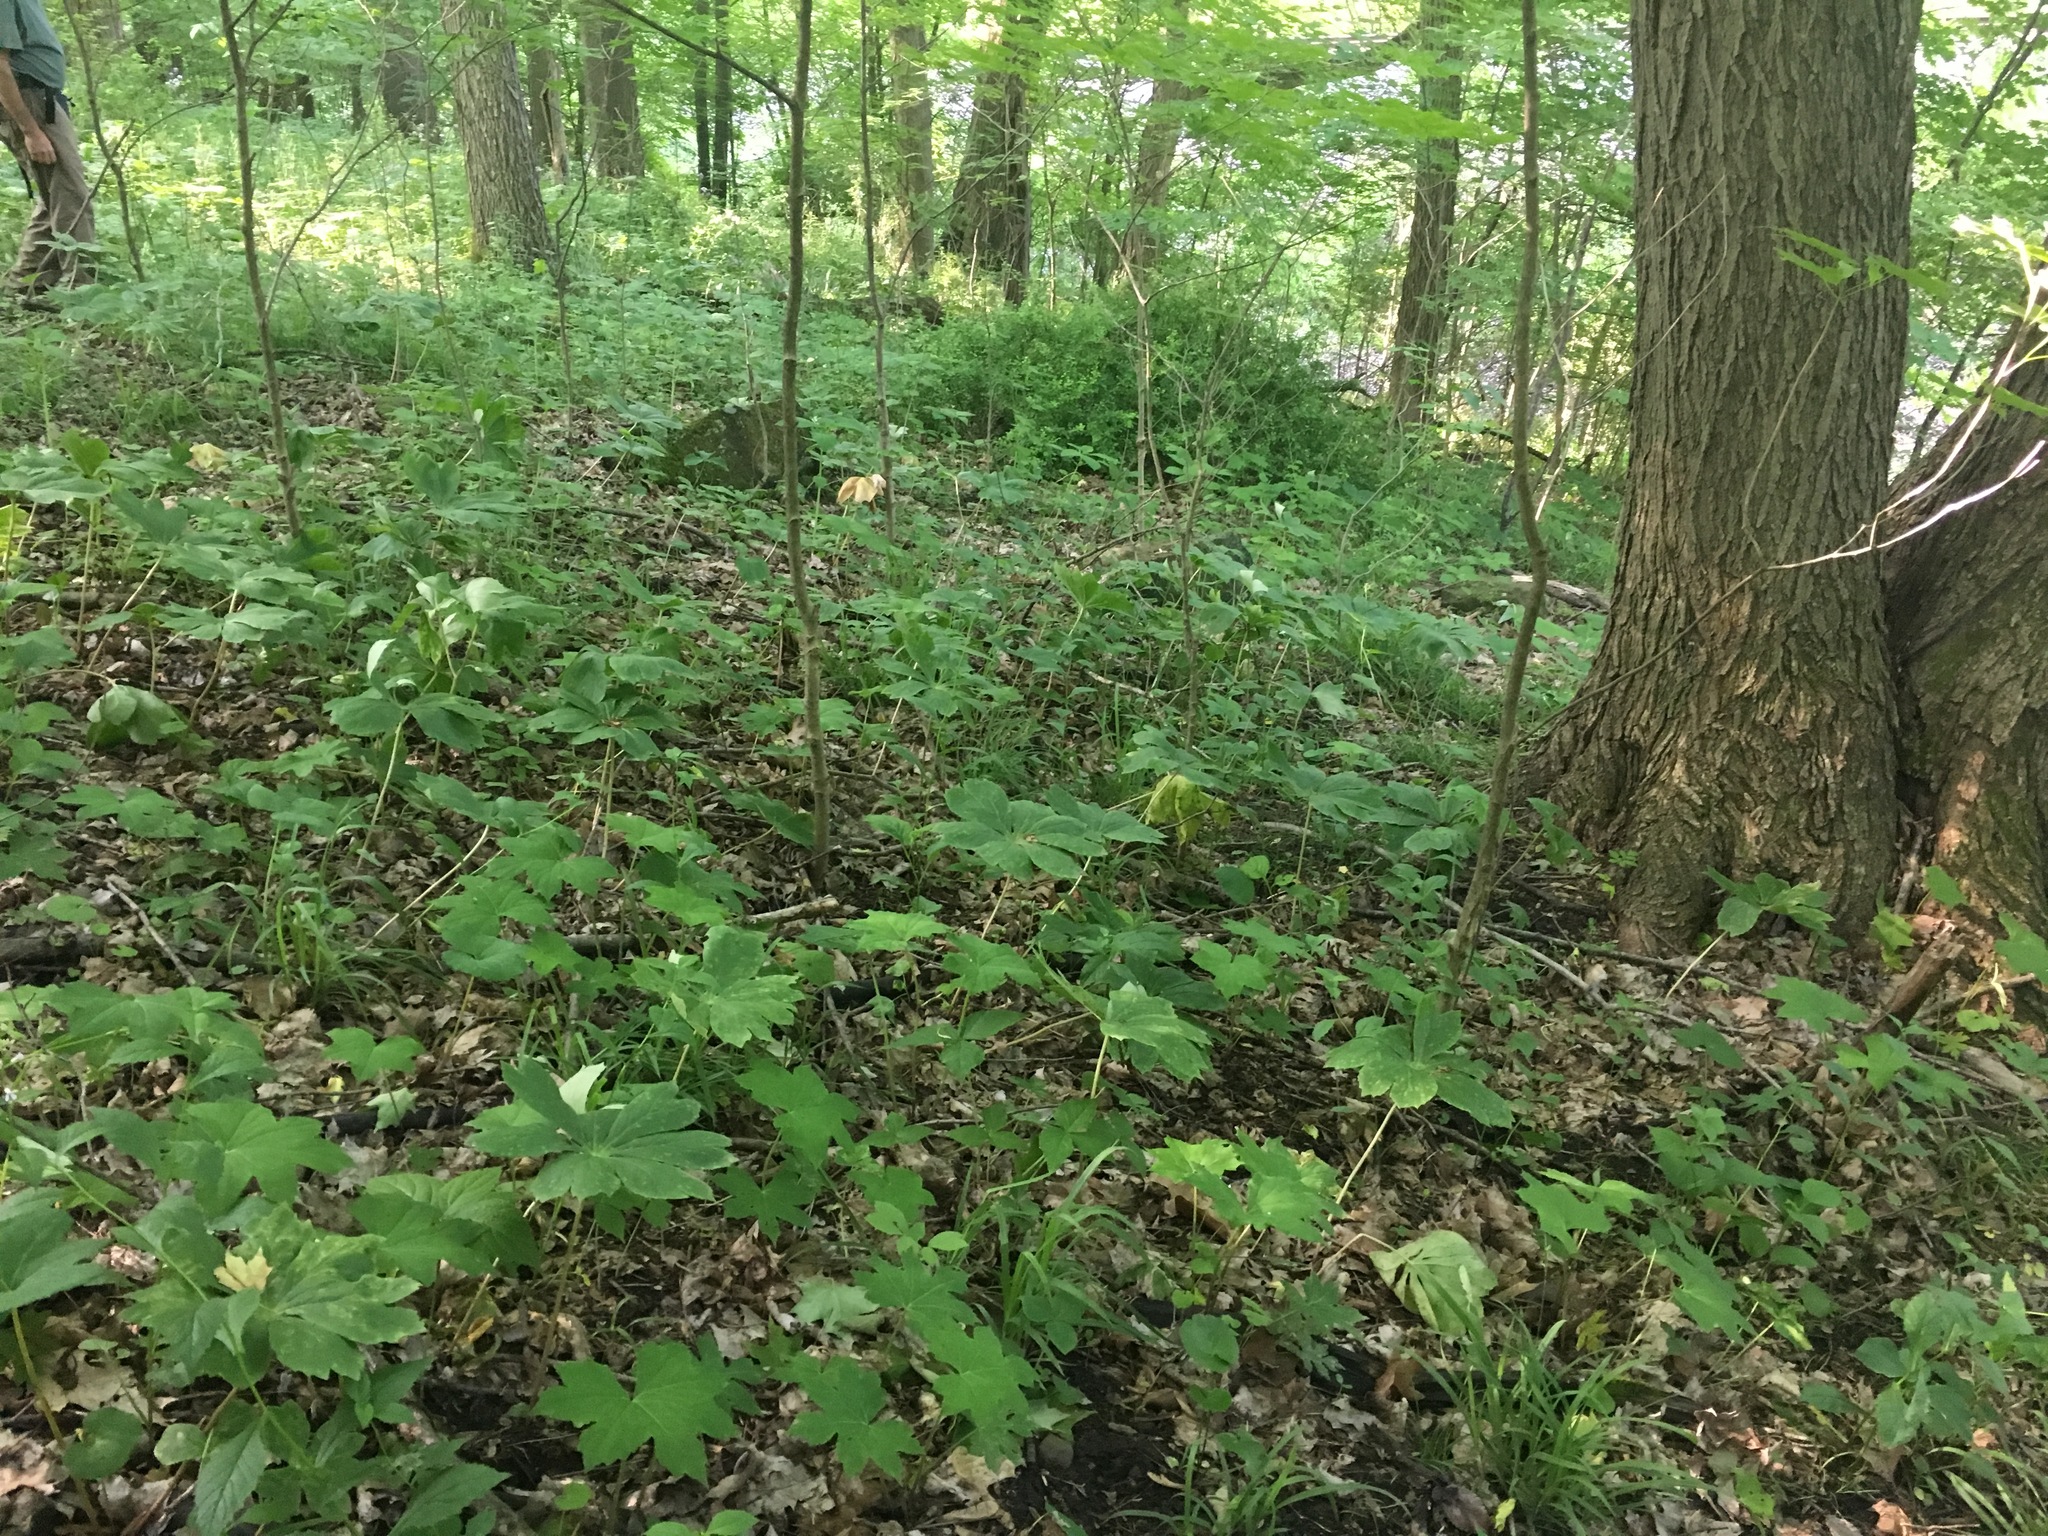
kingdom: Plantae
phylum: Tracheophyta
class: Magnoliopsida
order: Ranunculales
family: Berberidaceae
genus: Podophyllum
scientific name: Podophyllum peltatum
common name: Wild mandrake
